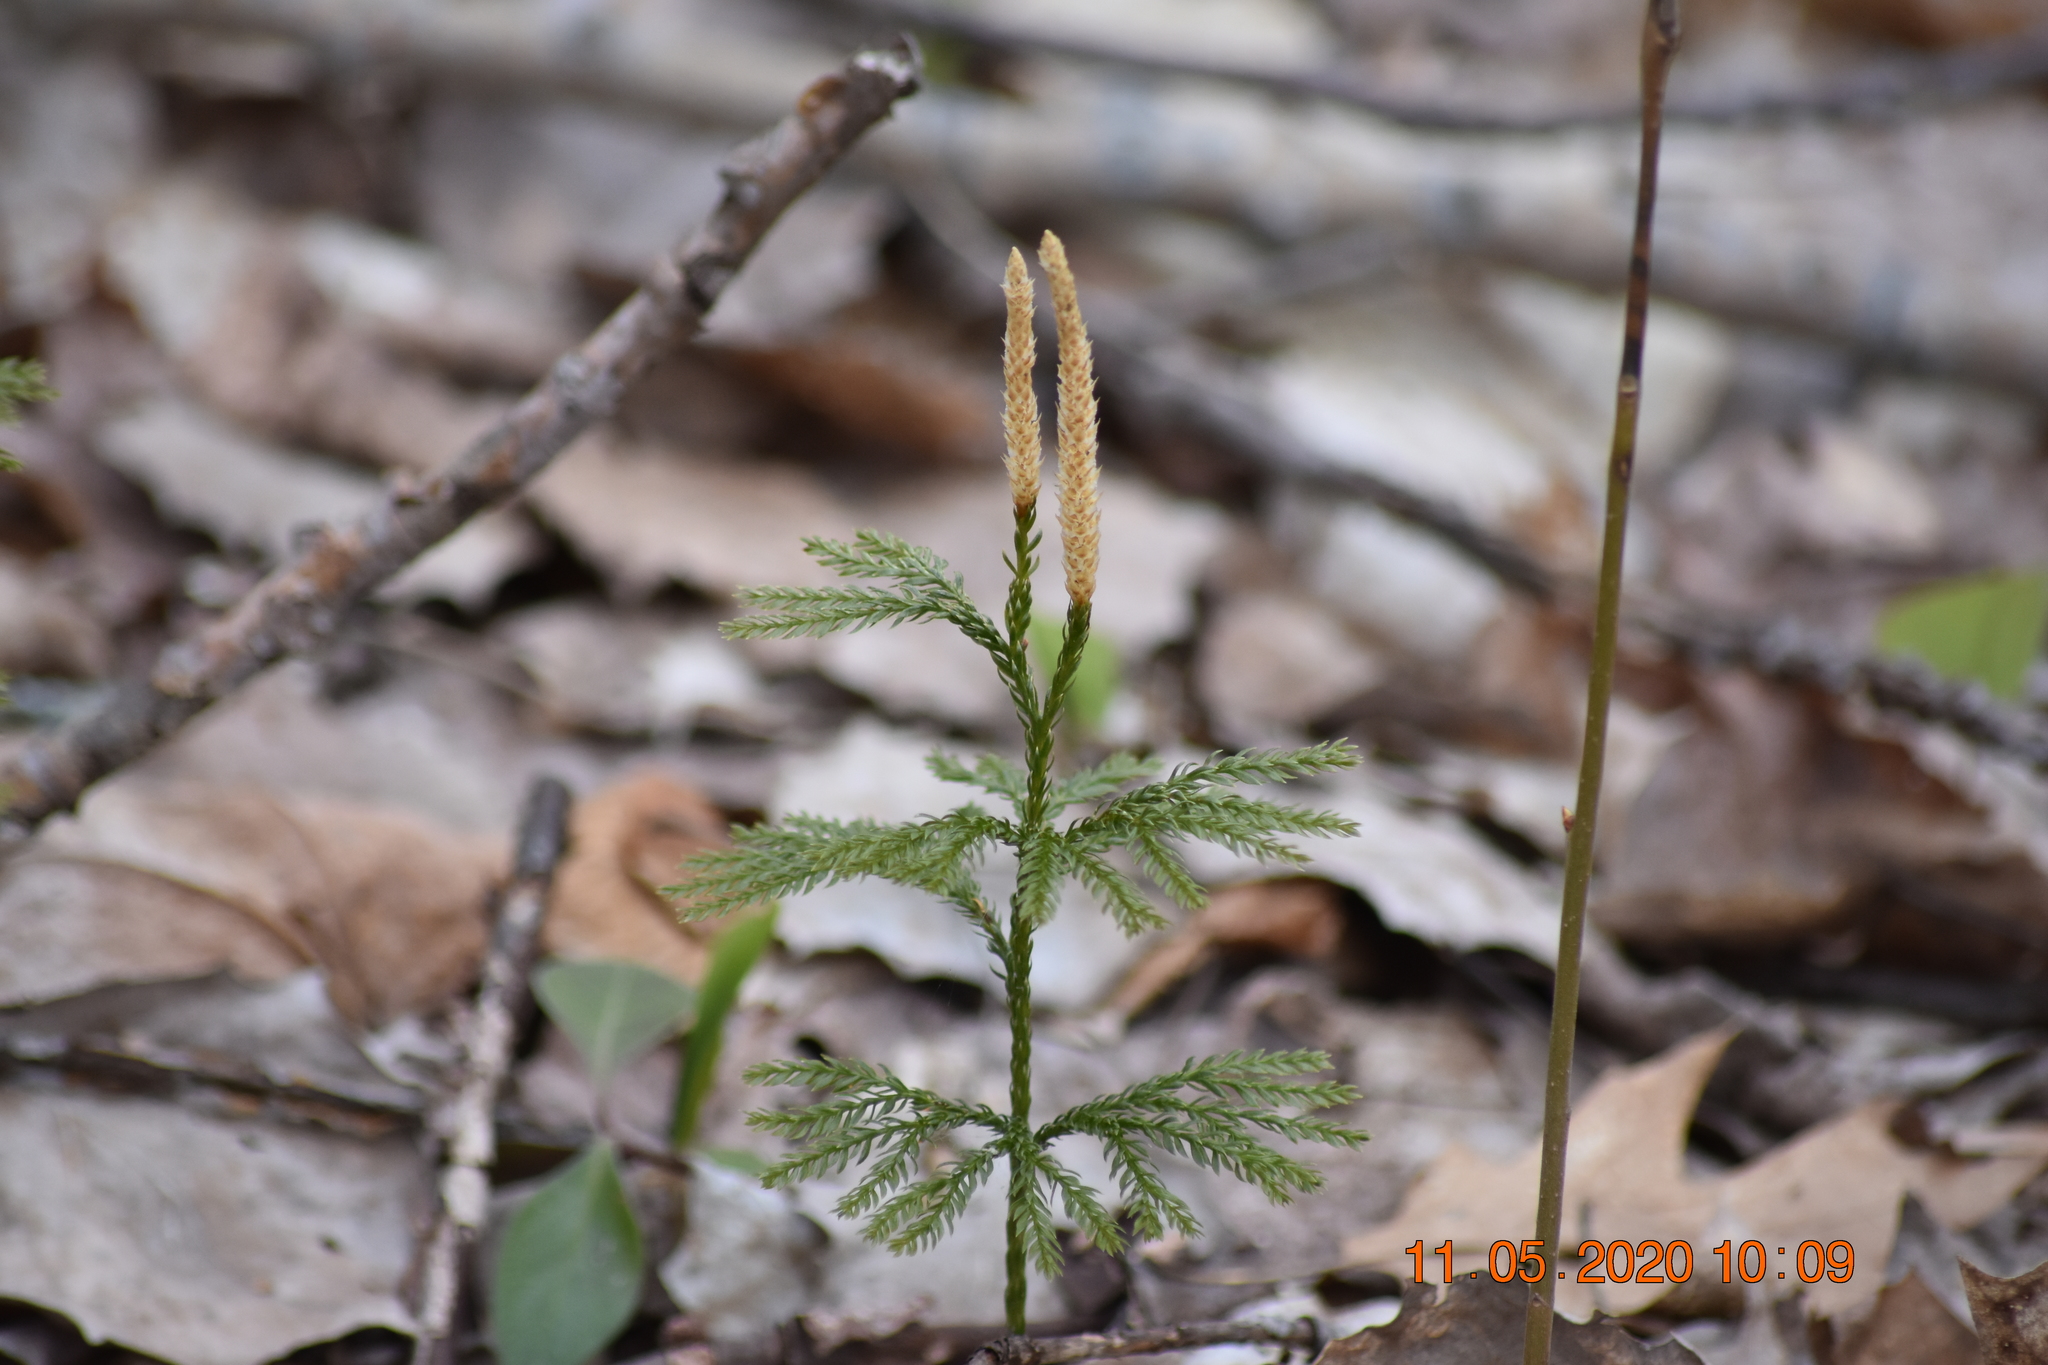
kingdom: Plantae
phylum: Tracheophyta
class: Lycopodiopsida
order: Lycopodiales
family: Lycopodiaceae
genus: Dendrolycopodium
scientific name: Dendrolycopodium obscurum
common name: Common ground-pine
